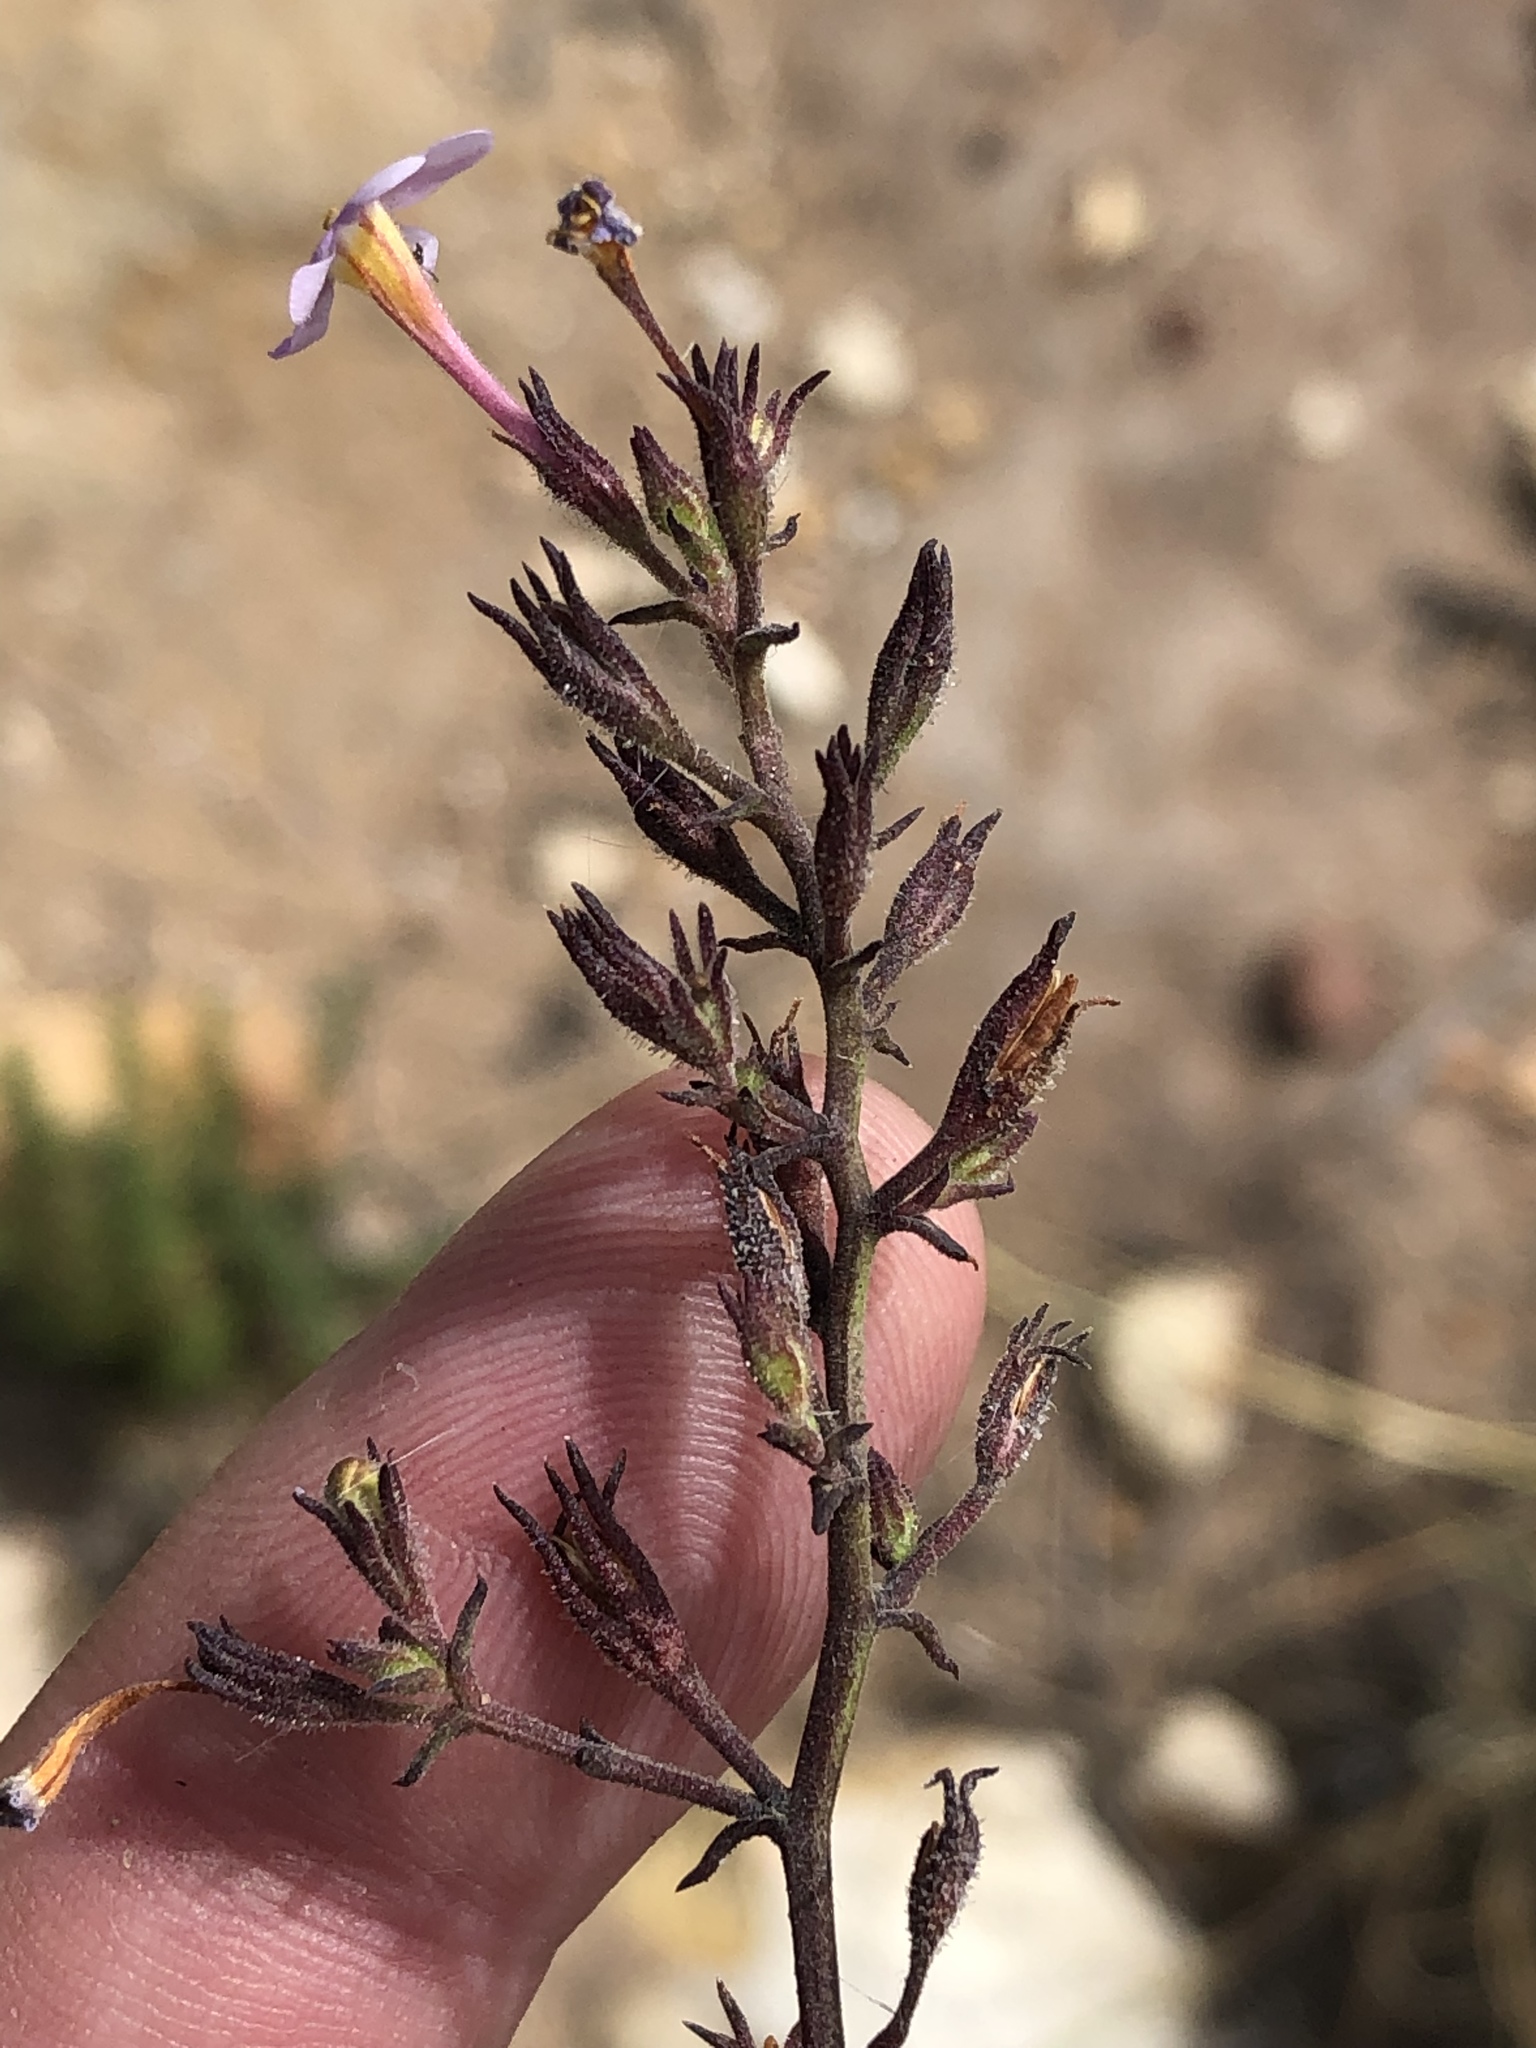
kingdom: Plantae
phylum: Tracheophyta
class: Magnoliopsida
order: Lamiales
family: Scrophulariaceae
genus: Chaenostoma
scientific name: Chaenostoma tenuicaule
